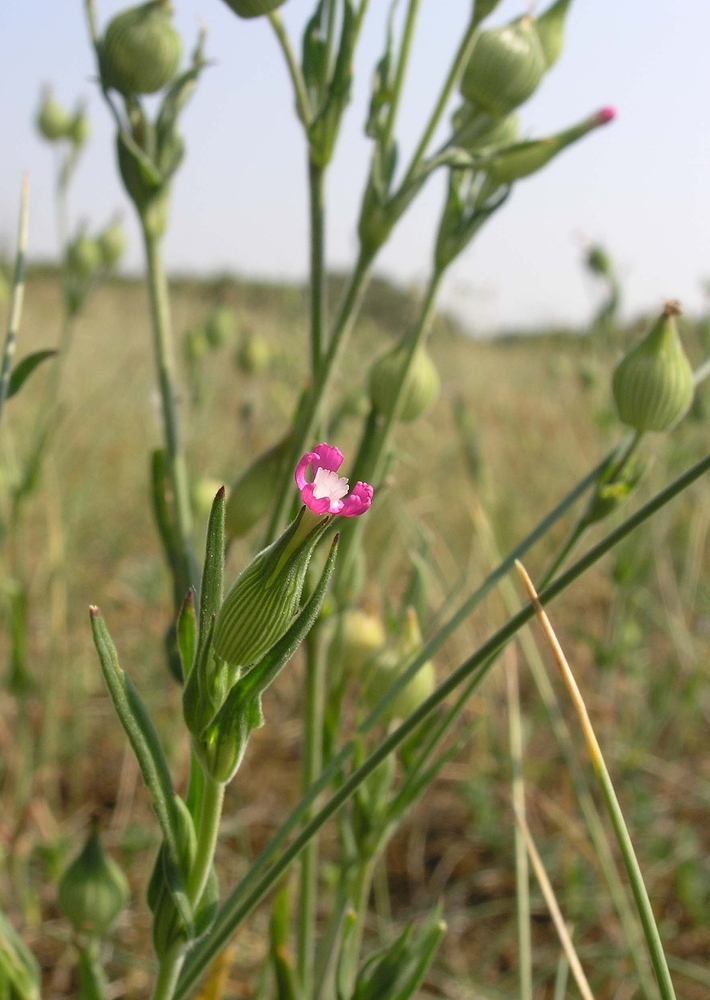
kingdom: Plantae
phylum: Tracheophyta
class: Magnoliopsida
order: Caryophyllales
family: Caryophyllaceae
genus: Silene
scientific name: Silene conica
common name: Sand catchfly
